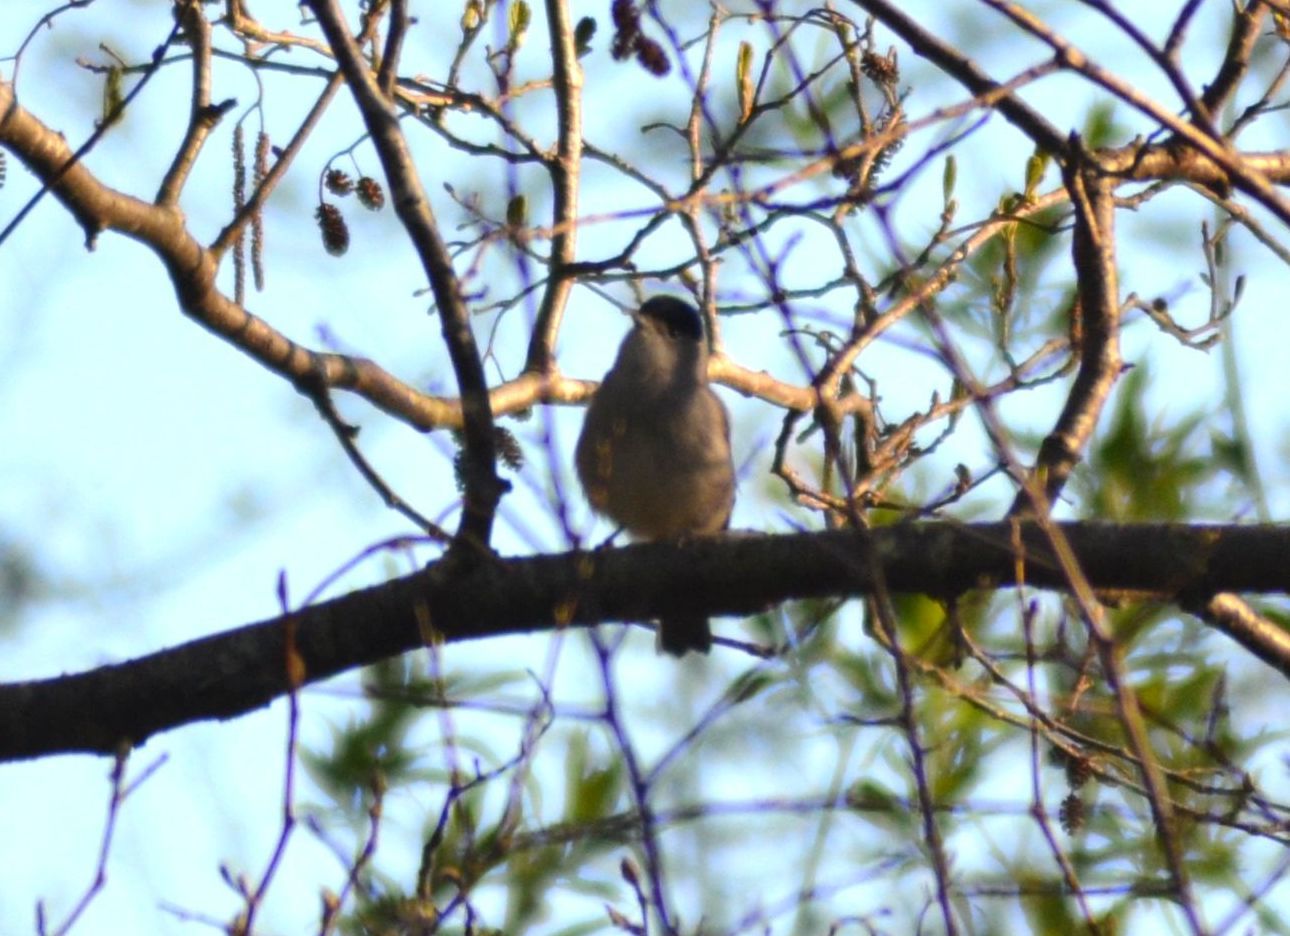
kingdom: Animalia
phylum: Chordata
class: Aves
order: Passeriformes
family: Sylviidae
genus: Sylvia
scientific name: Sylvia atricapilla
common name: Eurasian blackcap
